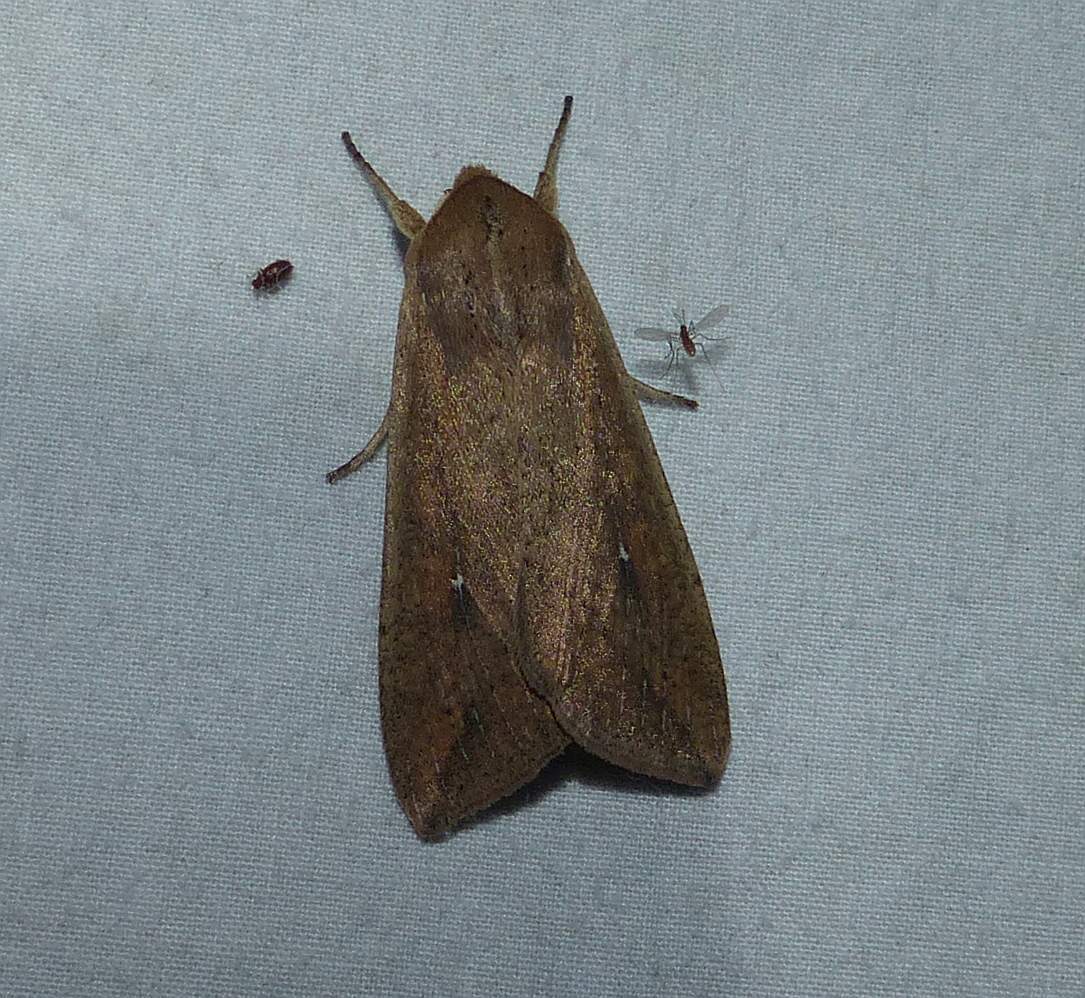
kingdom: Animalia
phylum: Arthropoda
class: Insecta
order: Lepidoptera
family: Noctuidae
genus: Mythimna
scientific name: Mythimna unipuncta
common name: White-speck
